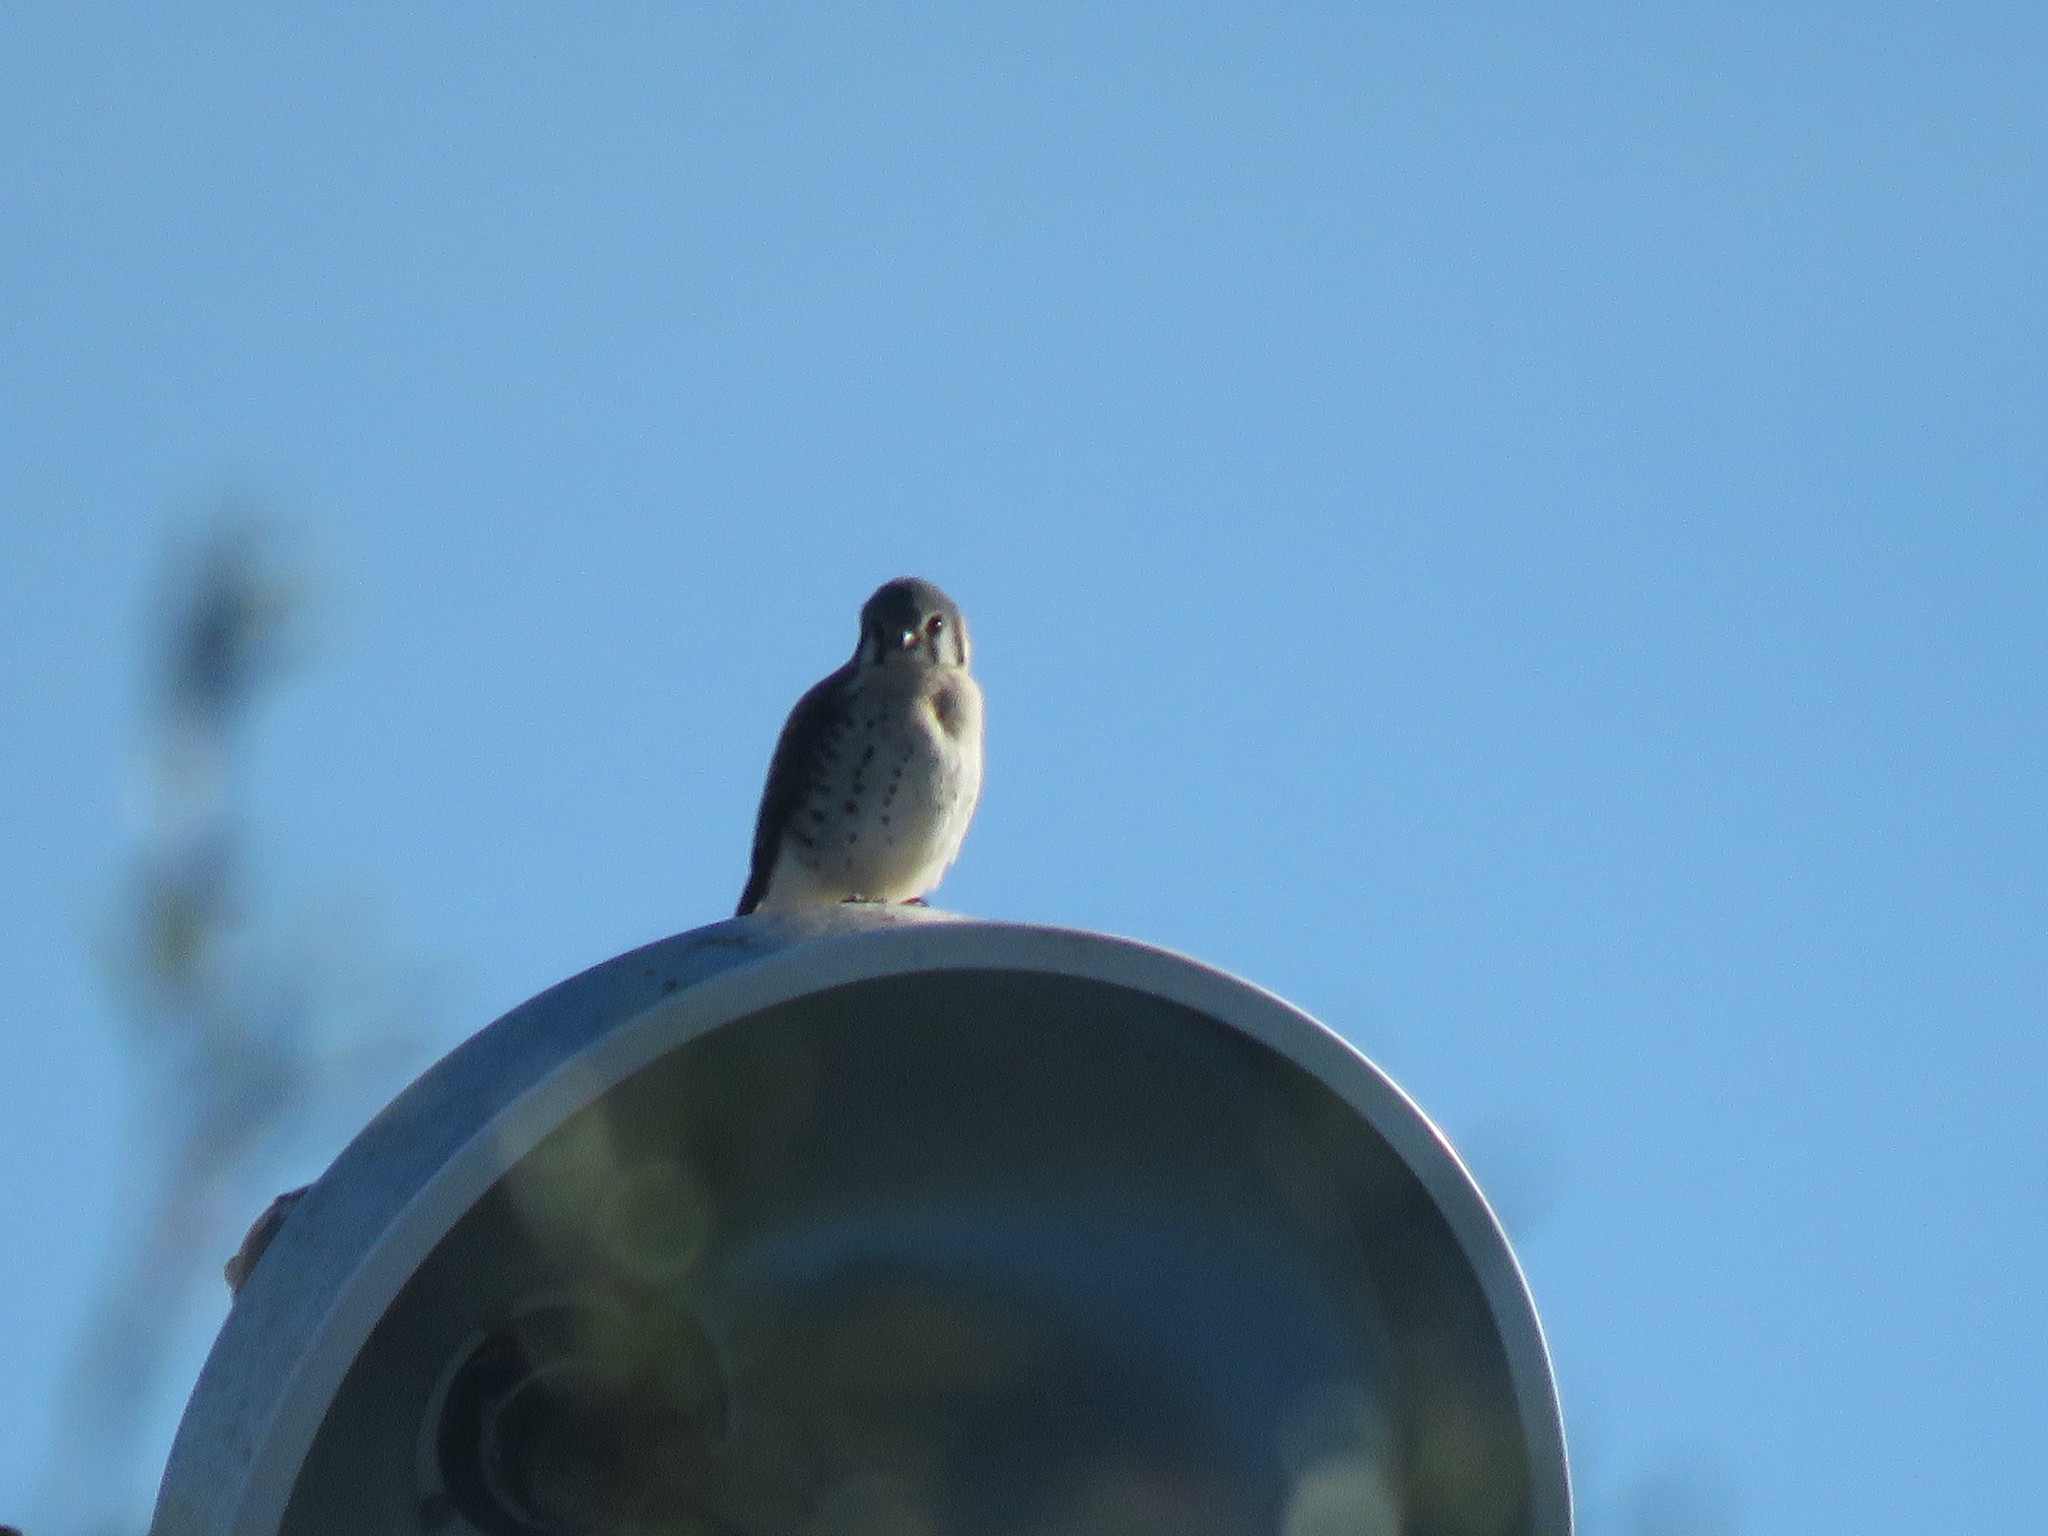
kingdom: Animalia
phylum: Chordata
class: Aves
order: Falconiformes
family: Falconidae
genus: Falco
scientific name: Falco sparverius
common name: American kestrel
